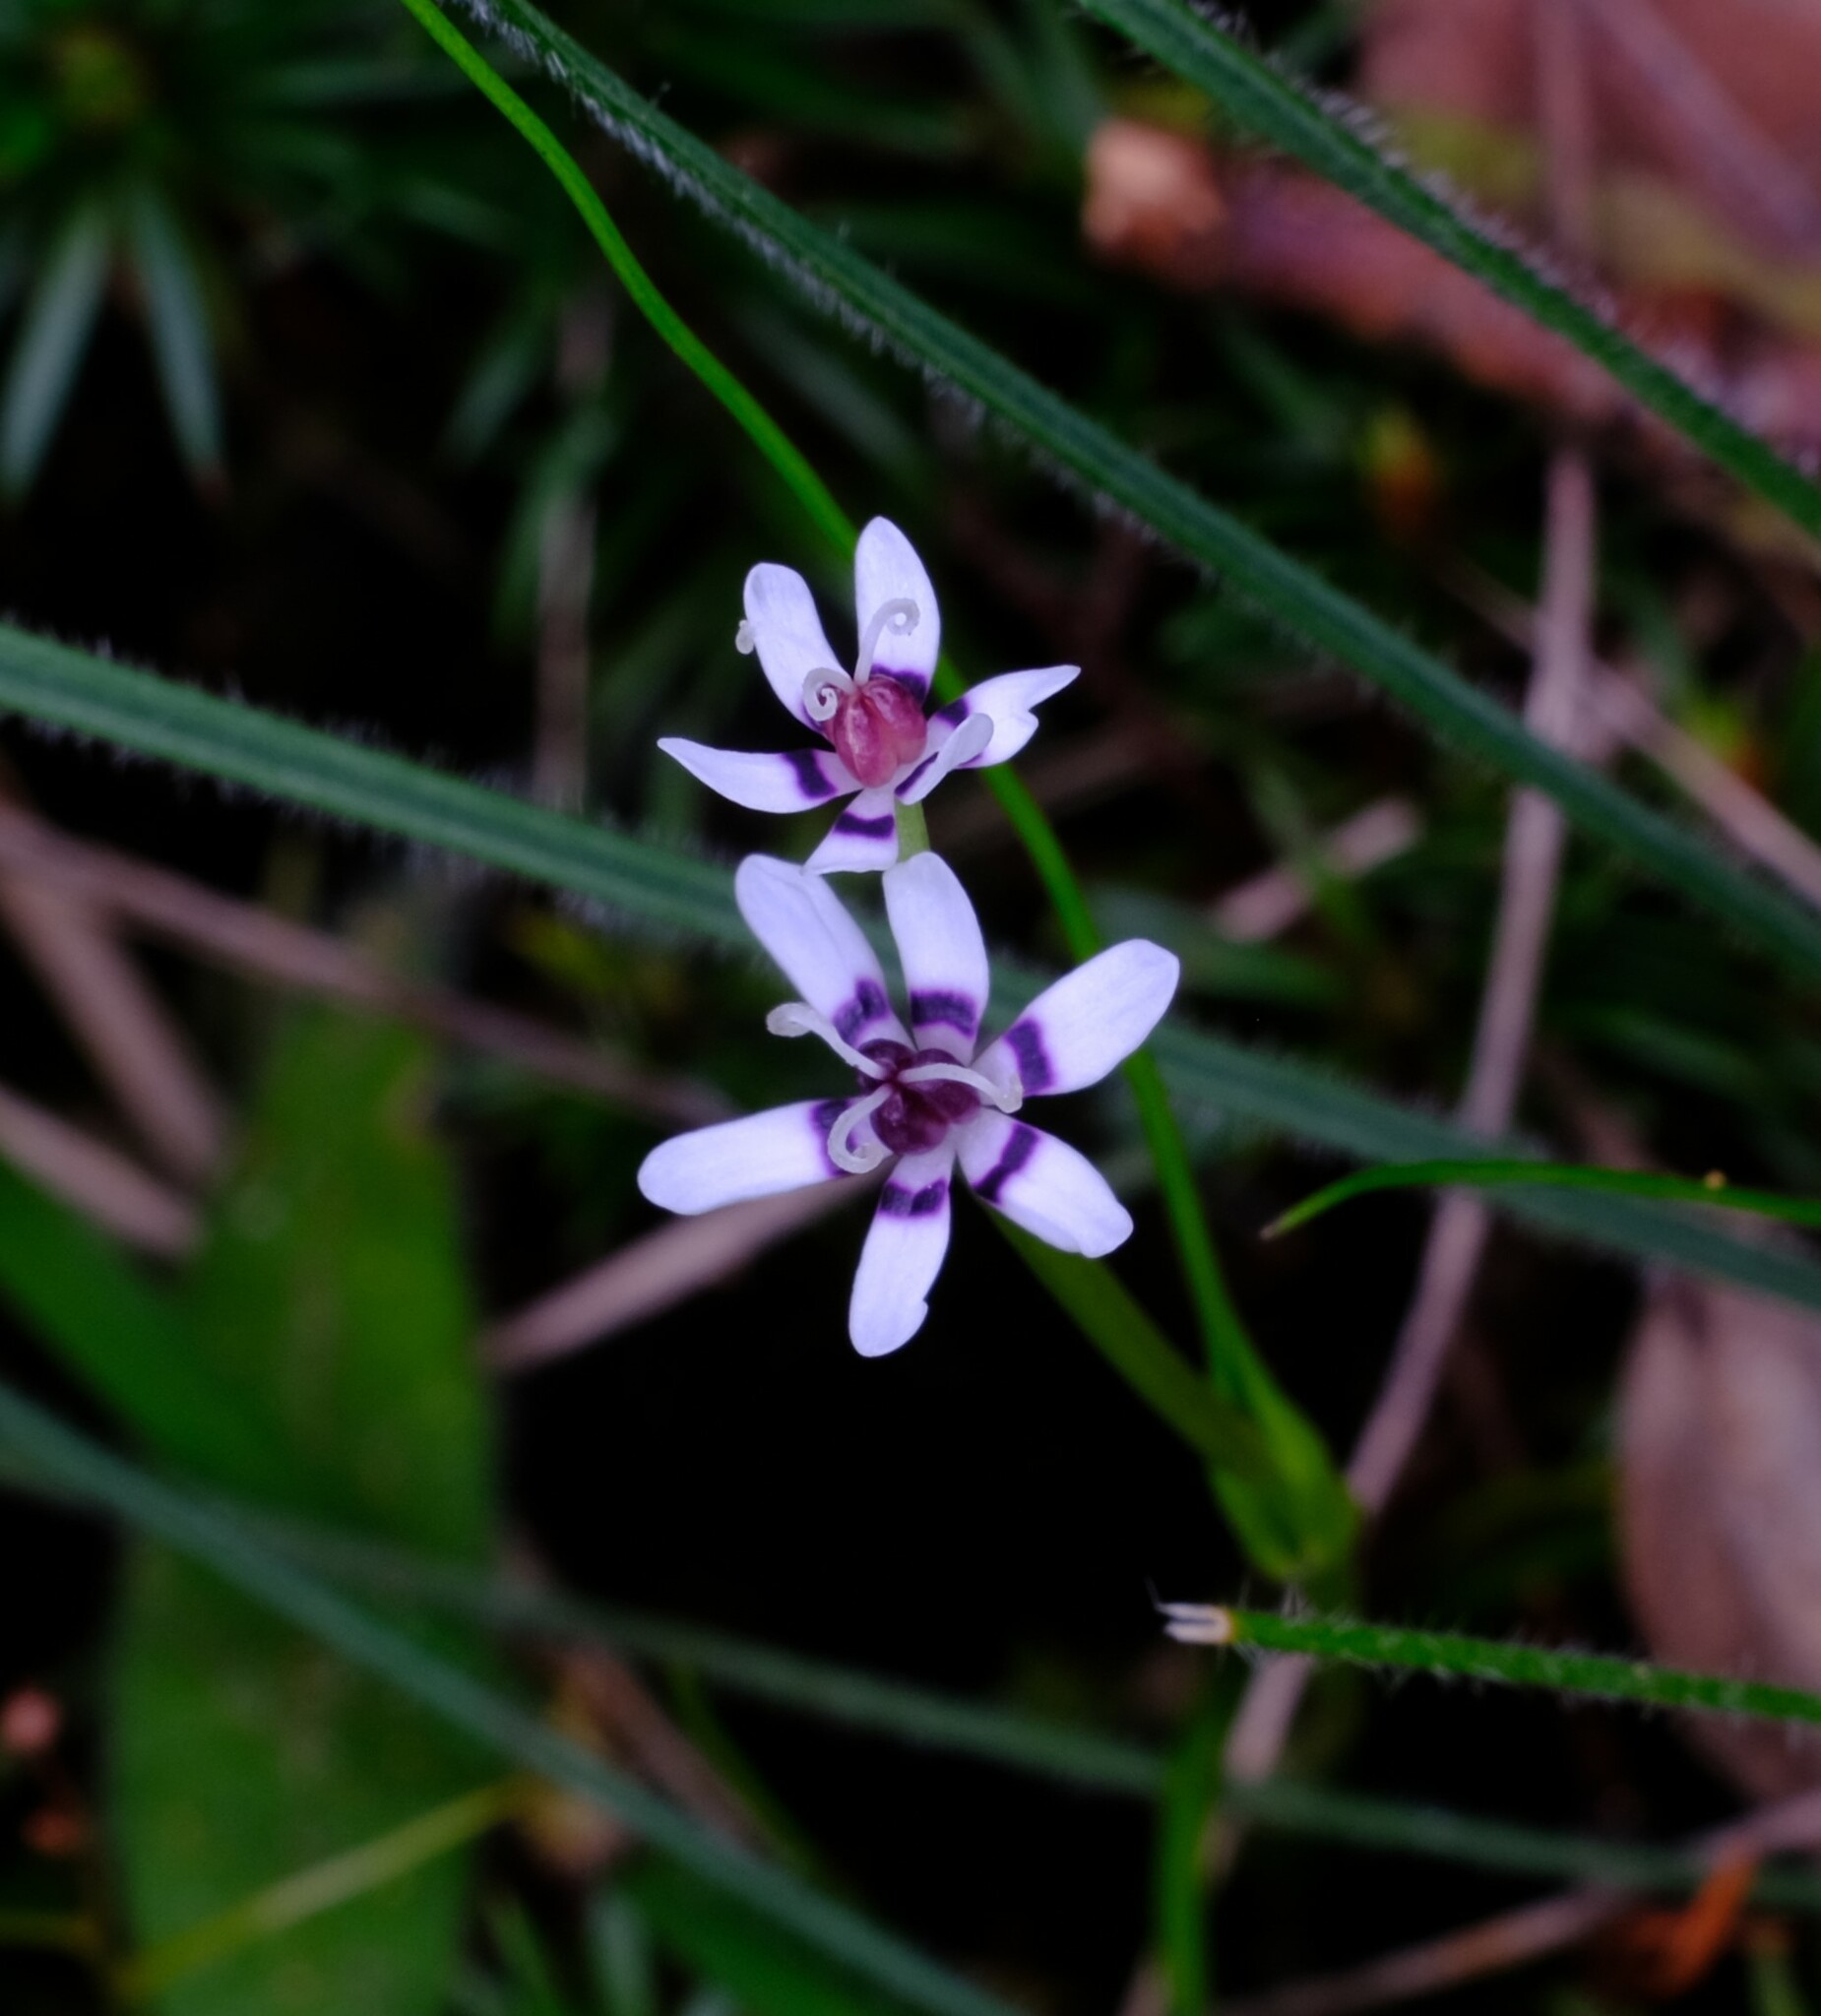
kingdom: Plantae
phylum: Tracheophyta
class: Liliopsida
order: Liliales
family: Colchicaceae
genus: Wurmbea
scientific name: Wurmbea dioica
